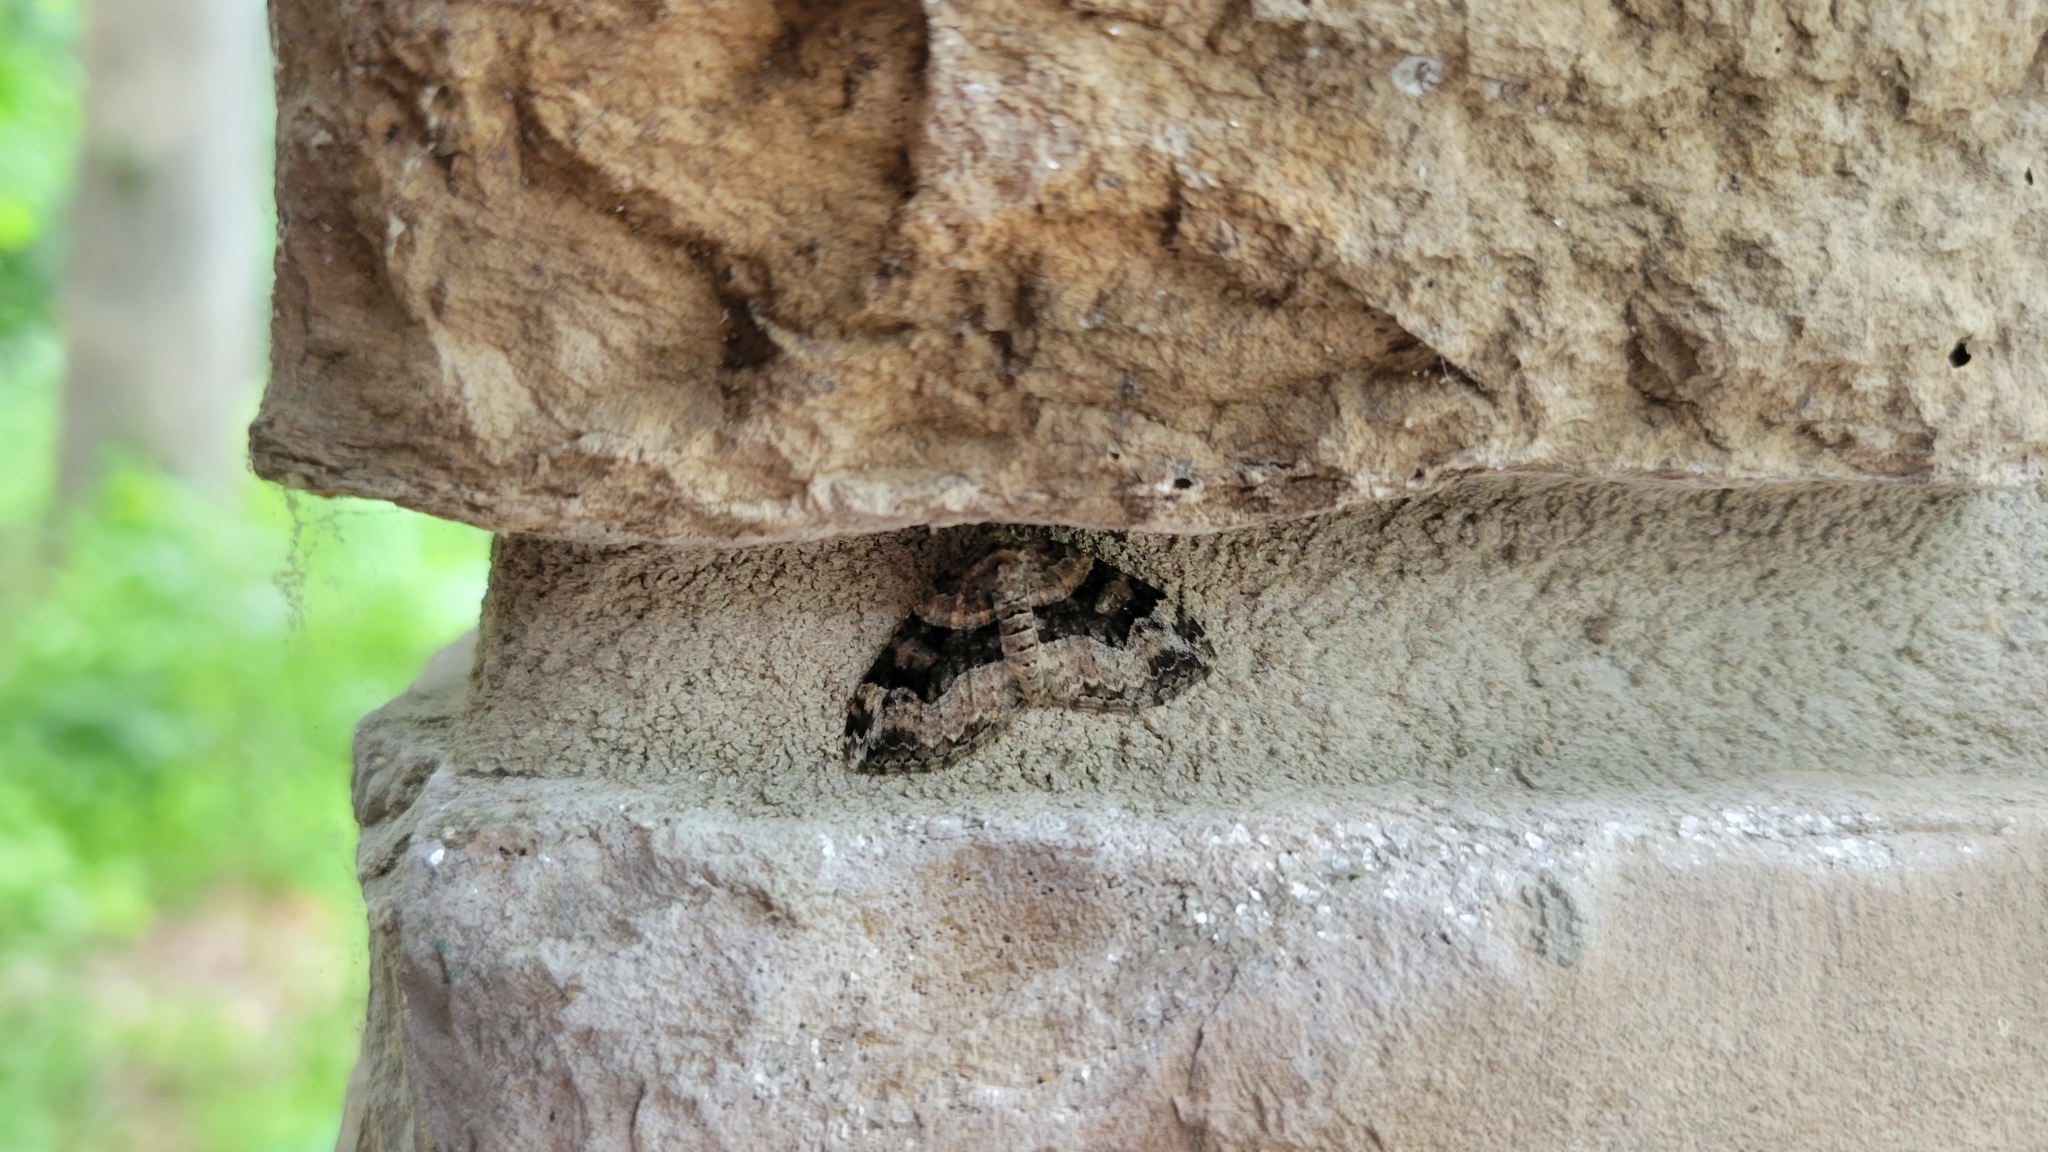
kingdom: Animalia
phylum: Arthropoda
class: Insecta
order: Lepidoptera
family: Geometridae
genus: Xanthorhoe
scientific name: Xanthorhoe lacustrata
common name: Toothed brown carpet
